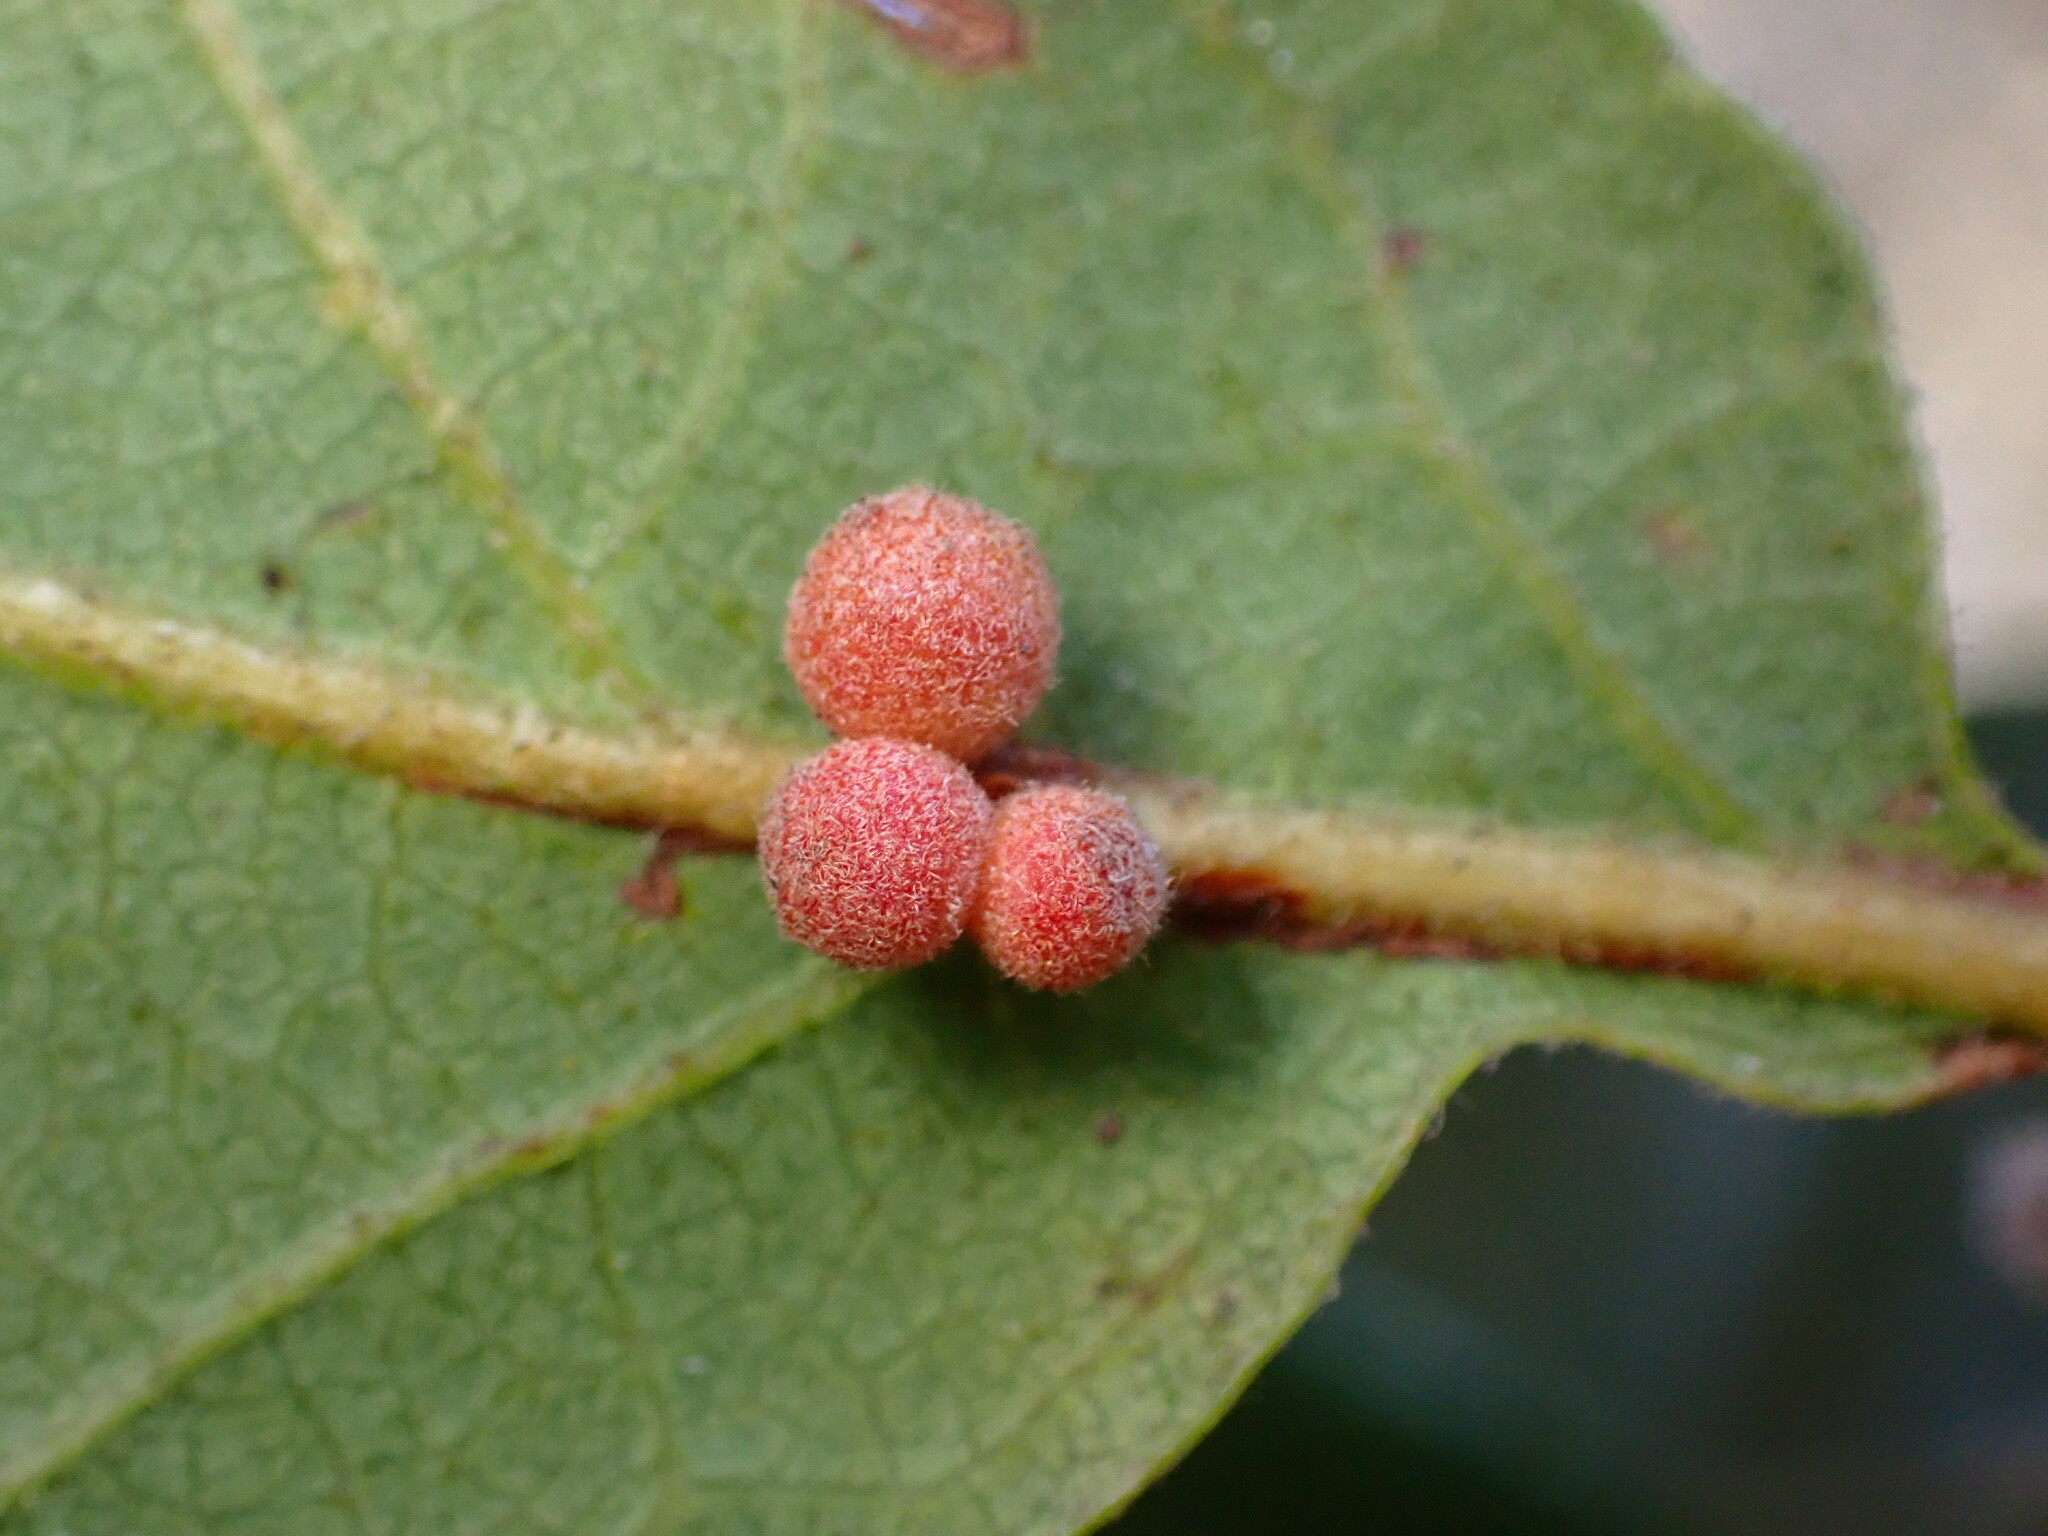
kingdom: Animalia
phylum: Arthropoda
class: Insecta
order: Hymenoptera
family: Cynipidae
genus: Andricus
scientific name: Andricus
